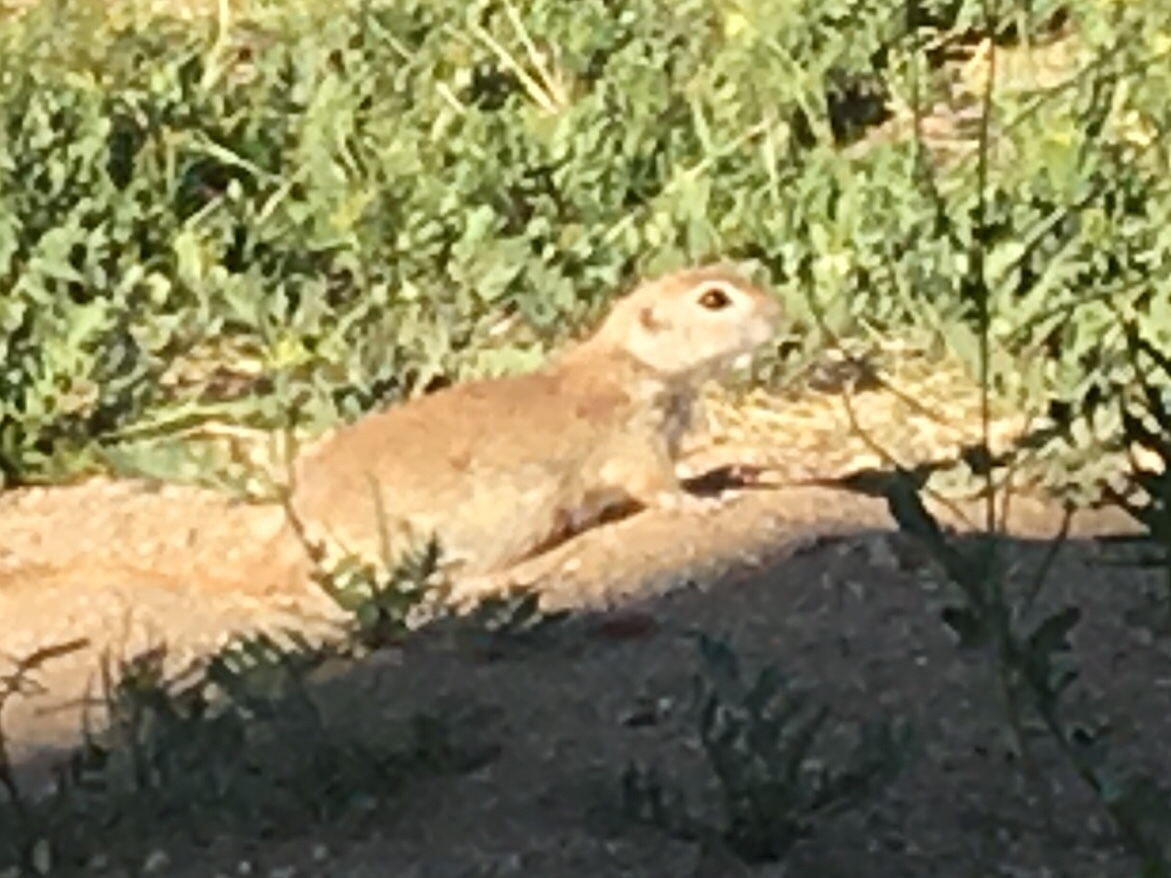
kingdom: Animalia
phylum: Chordata
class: Mammalia
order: Rodentia
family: Sciuridae
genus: Xerospermophilus
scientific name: Xerospermophilus tereticaudus
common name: Round-tailed ground squirrel
